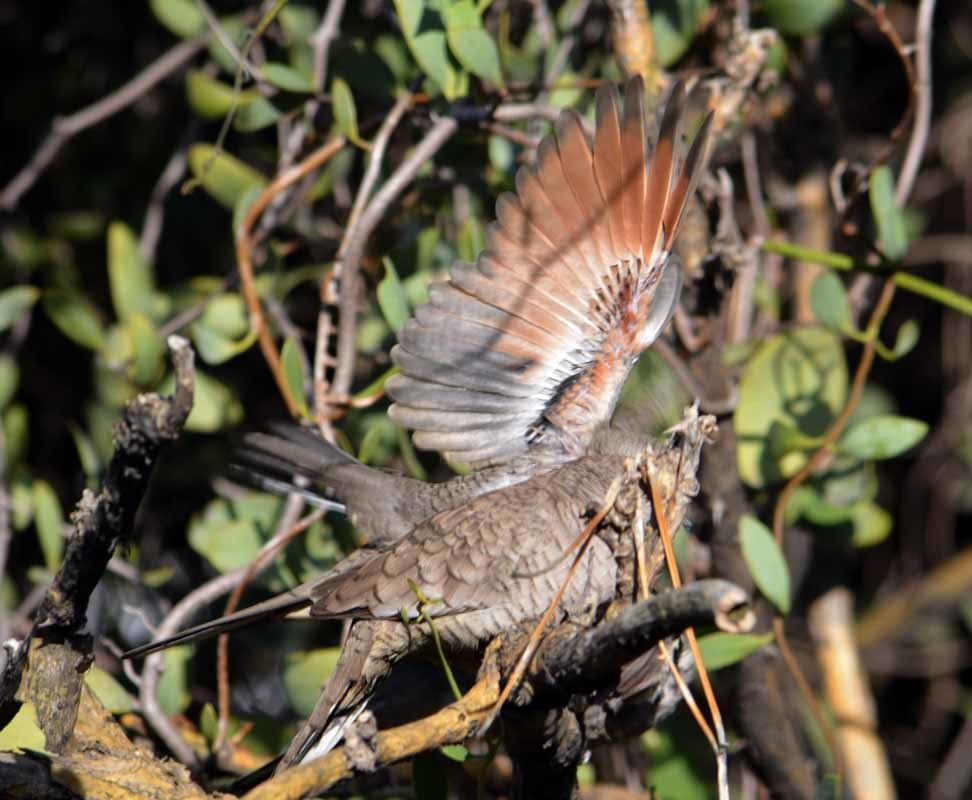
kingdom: Animalia
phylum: Chordata
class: Aves
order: Columbiformes
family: Columbidae
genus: Columbina
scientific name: Columbina inca
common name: Inca dove
